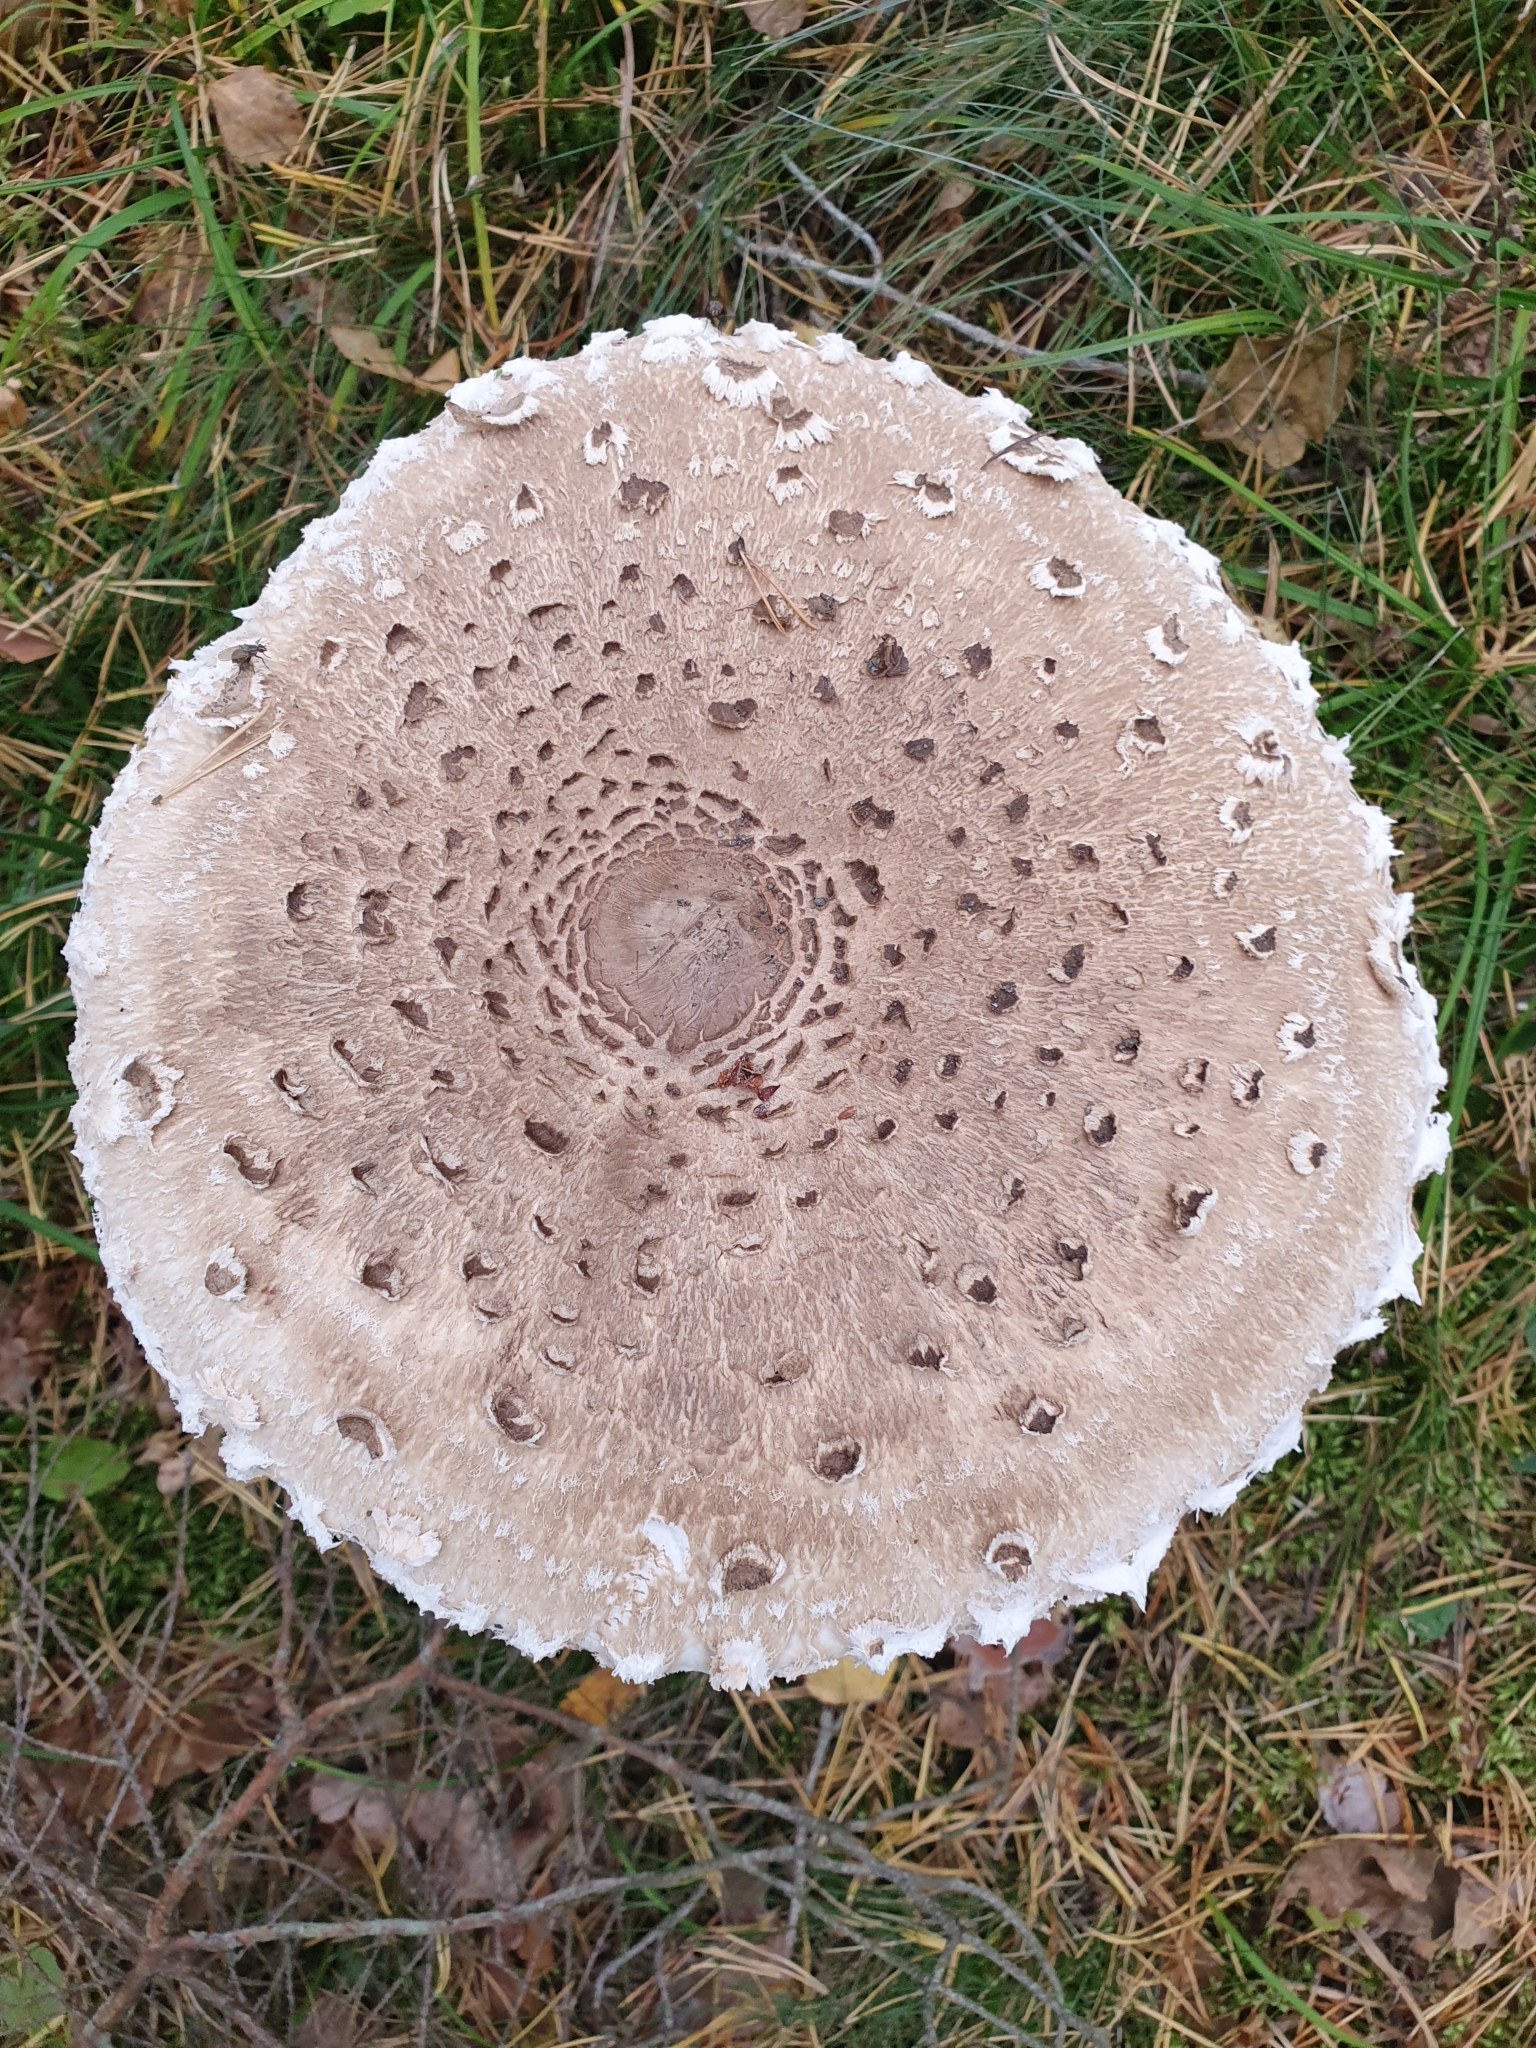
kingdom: Fungi
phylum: Basidiomycota
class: Agaricomycetes
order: Agaricales
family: Agaricaceae
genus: Macrolepiota
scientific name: Macrolepiota procera
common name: Parasol
